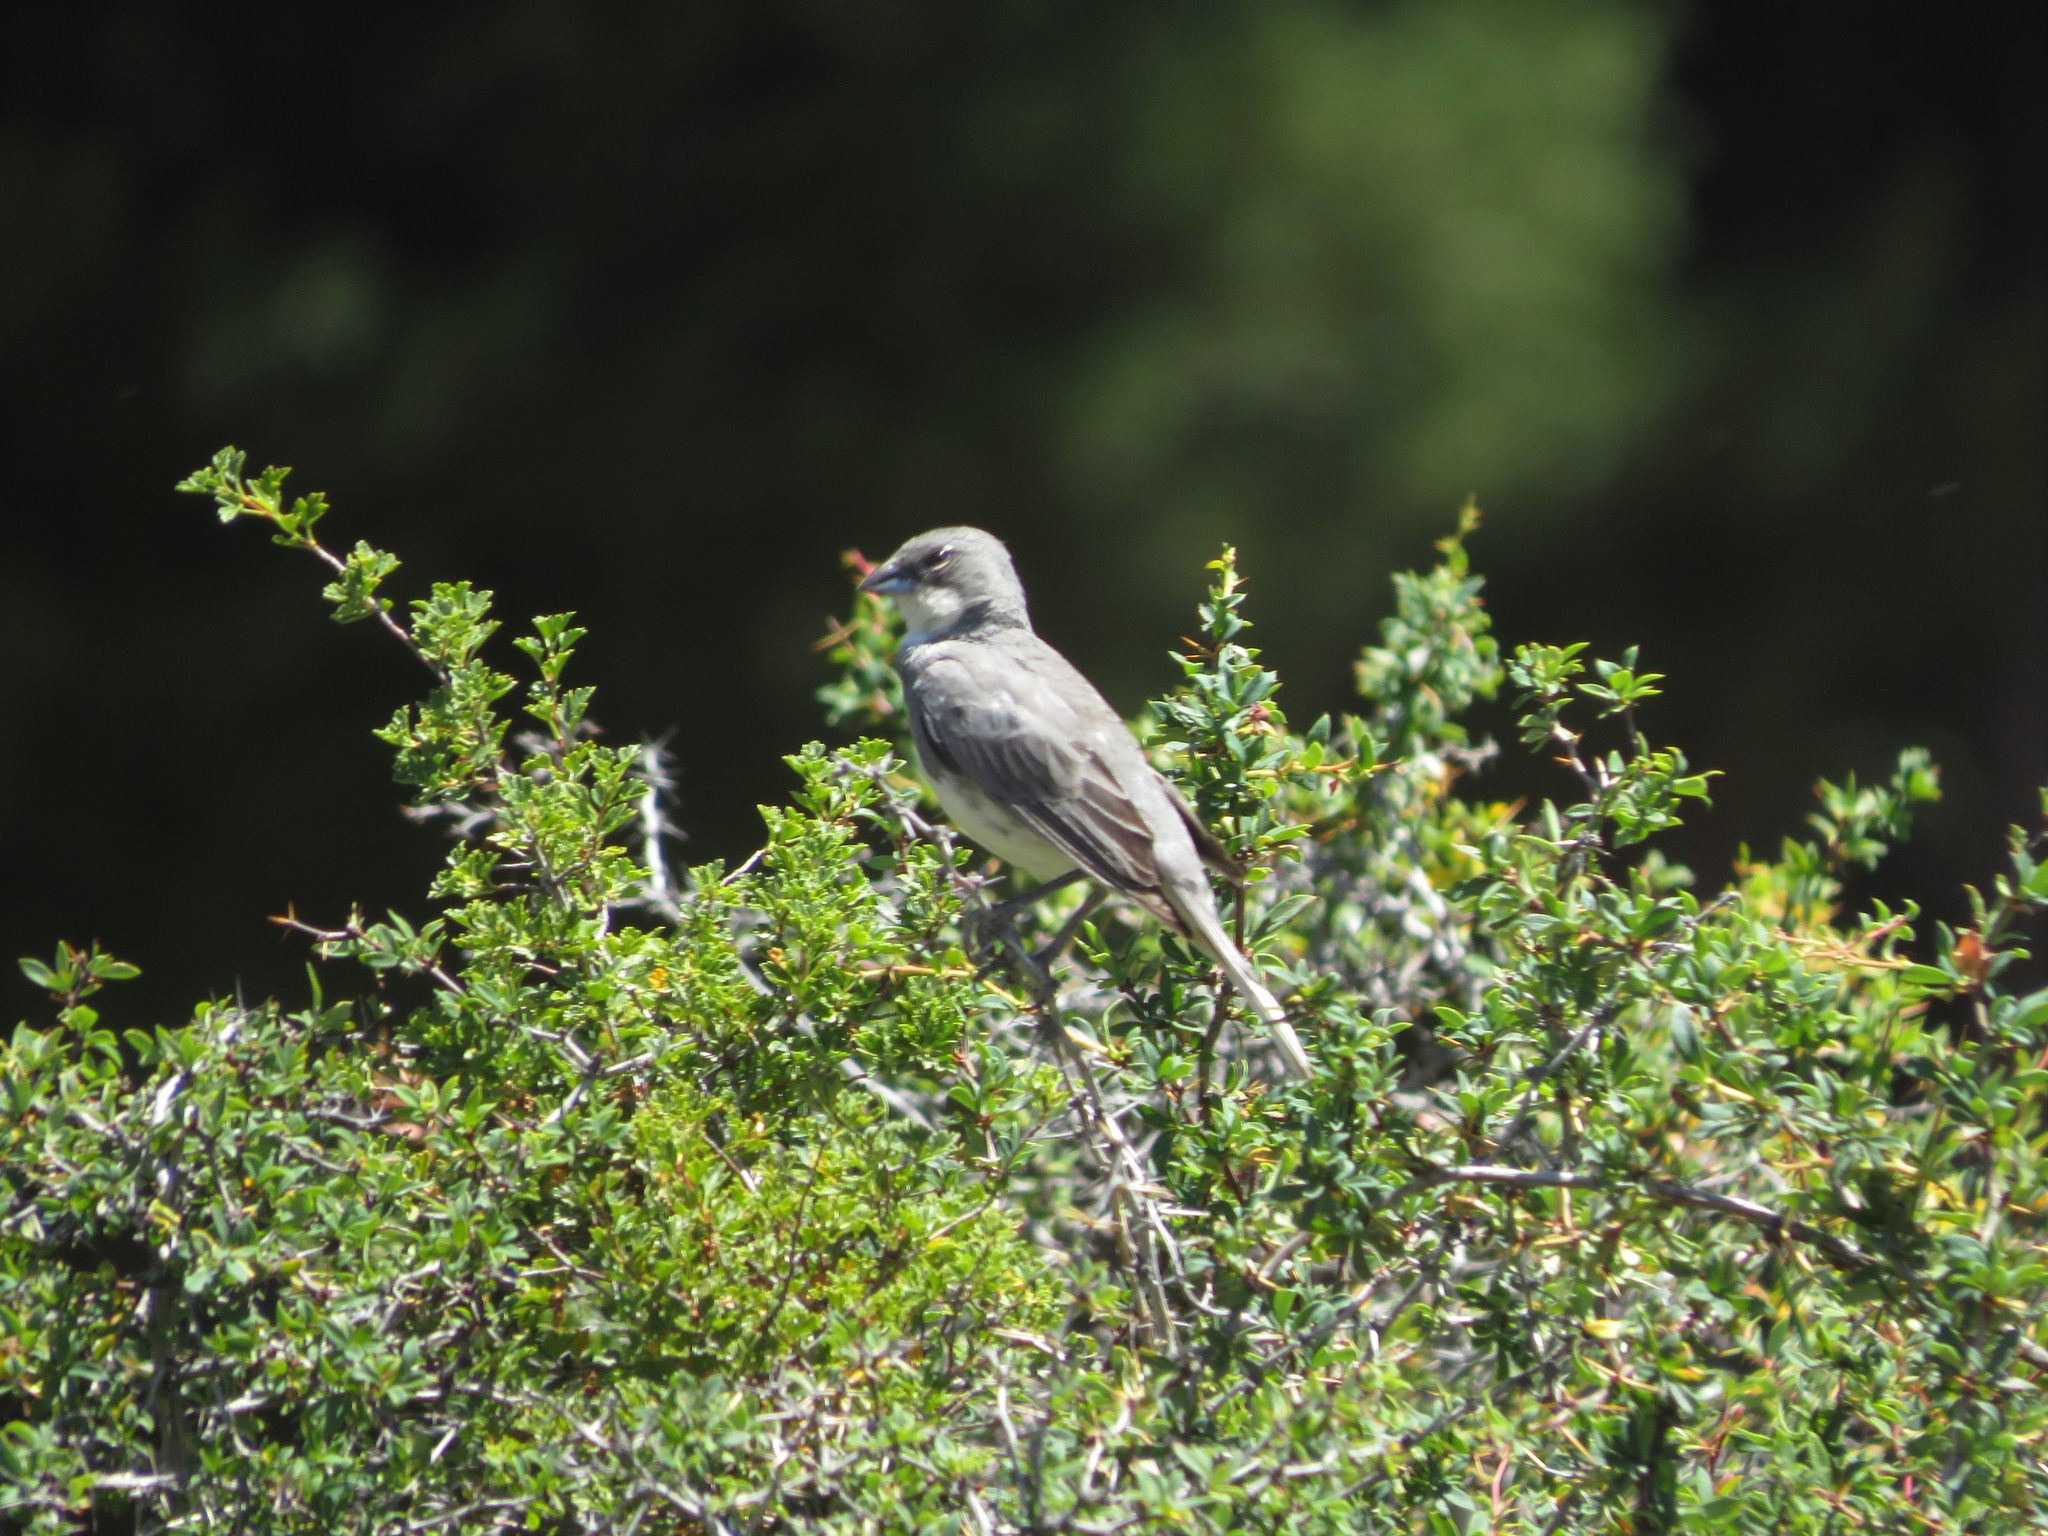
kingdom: Animalia
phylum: Chordata
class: Aves
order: Passeriformes
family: Thraupidae
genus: Diuca
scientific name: Diuca diuca
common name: Common diuca finch
